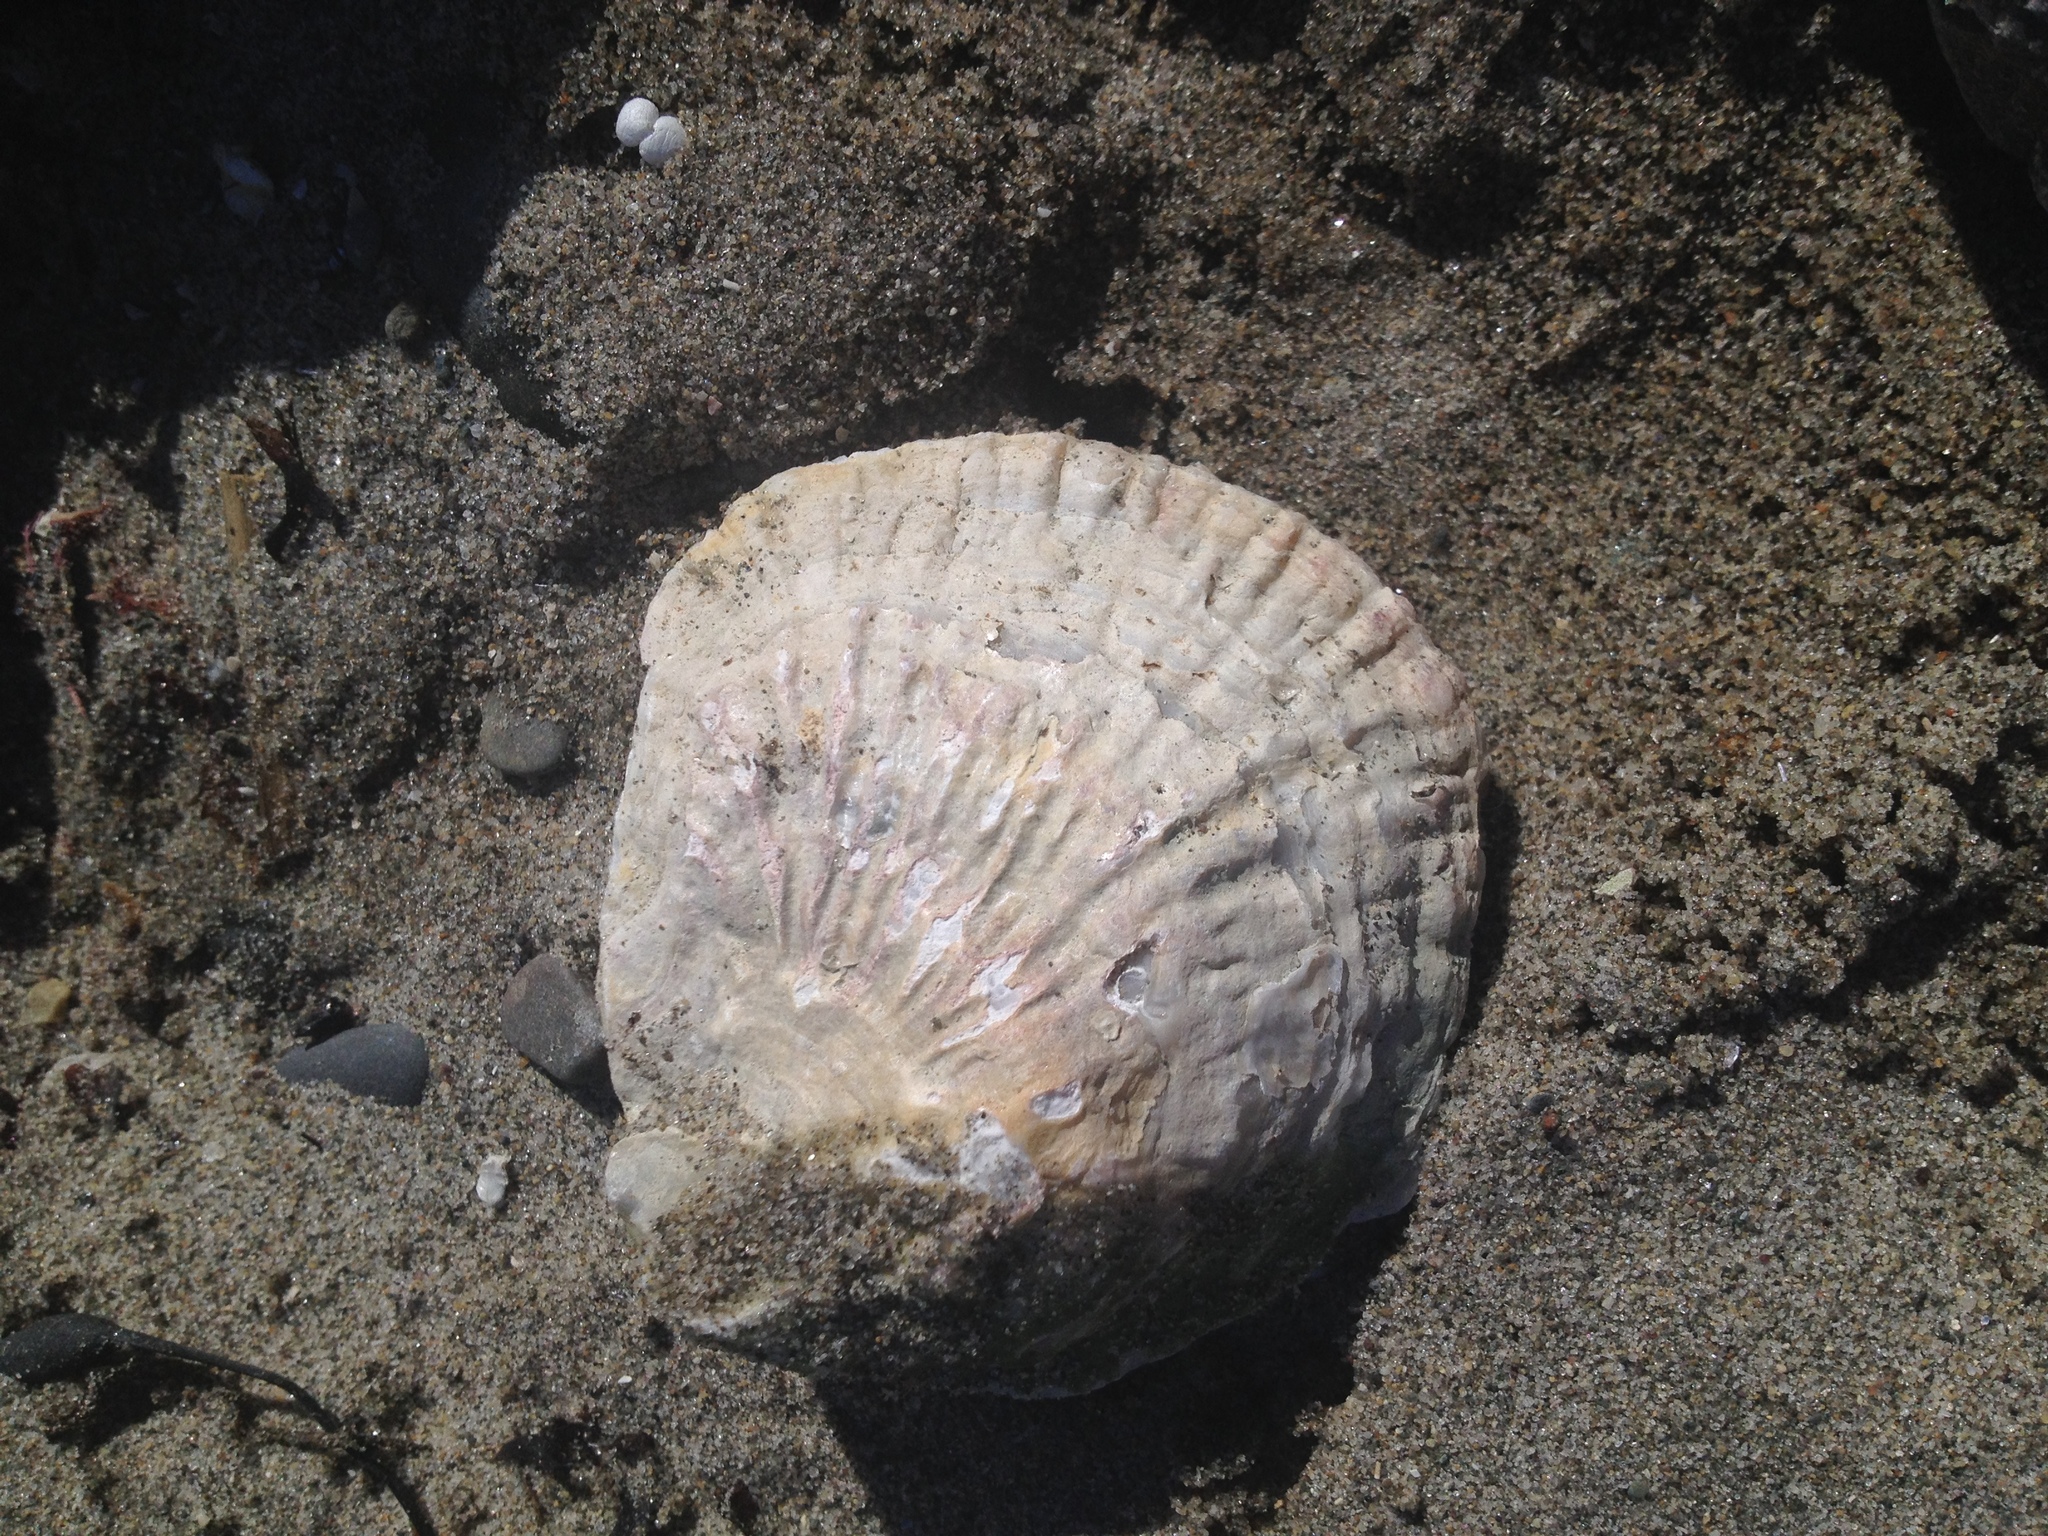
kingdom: Animalia
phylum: Mollusca
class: Bivalvia
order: Ostreida
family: Ostreidae
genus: Ostrea
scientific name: Ostrea edulis
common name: Flat oyster
